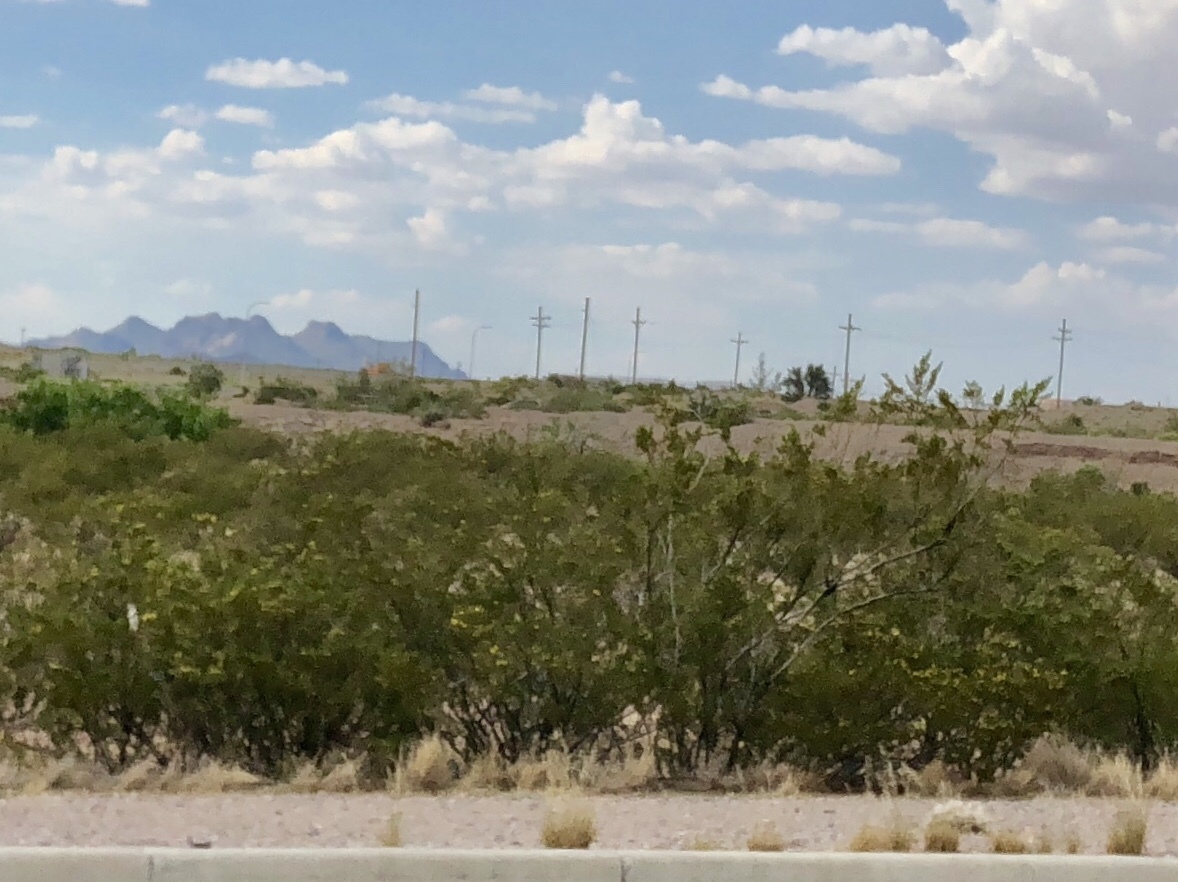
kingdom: Plantae
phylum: Tracheophyta
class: Magnoliopsida
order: Zygophyllales
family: Zygophyllaceae
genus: Larrea
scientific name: Larrea tridentata
